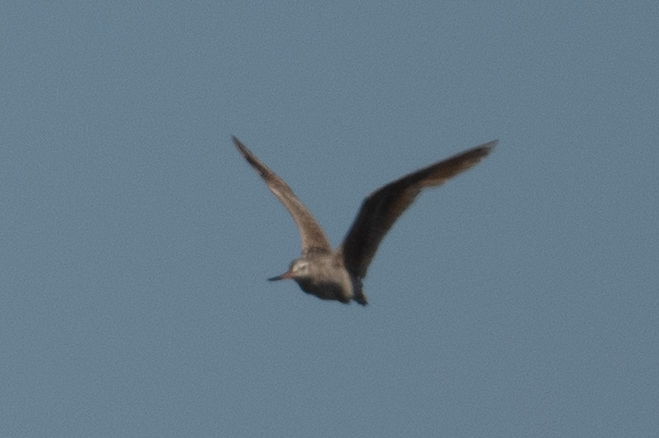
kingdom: Animalia
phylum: Chordata
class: Aves
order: Charadriiformes
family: Scolopacidae
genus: Limosa
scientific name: Limosa fedoa
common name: Marbled godwit
